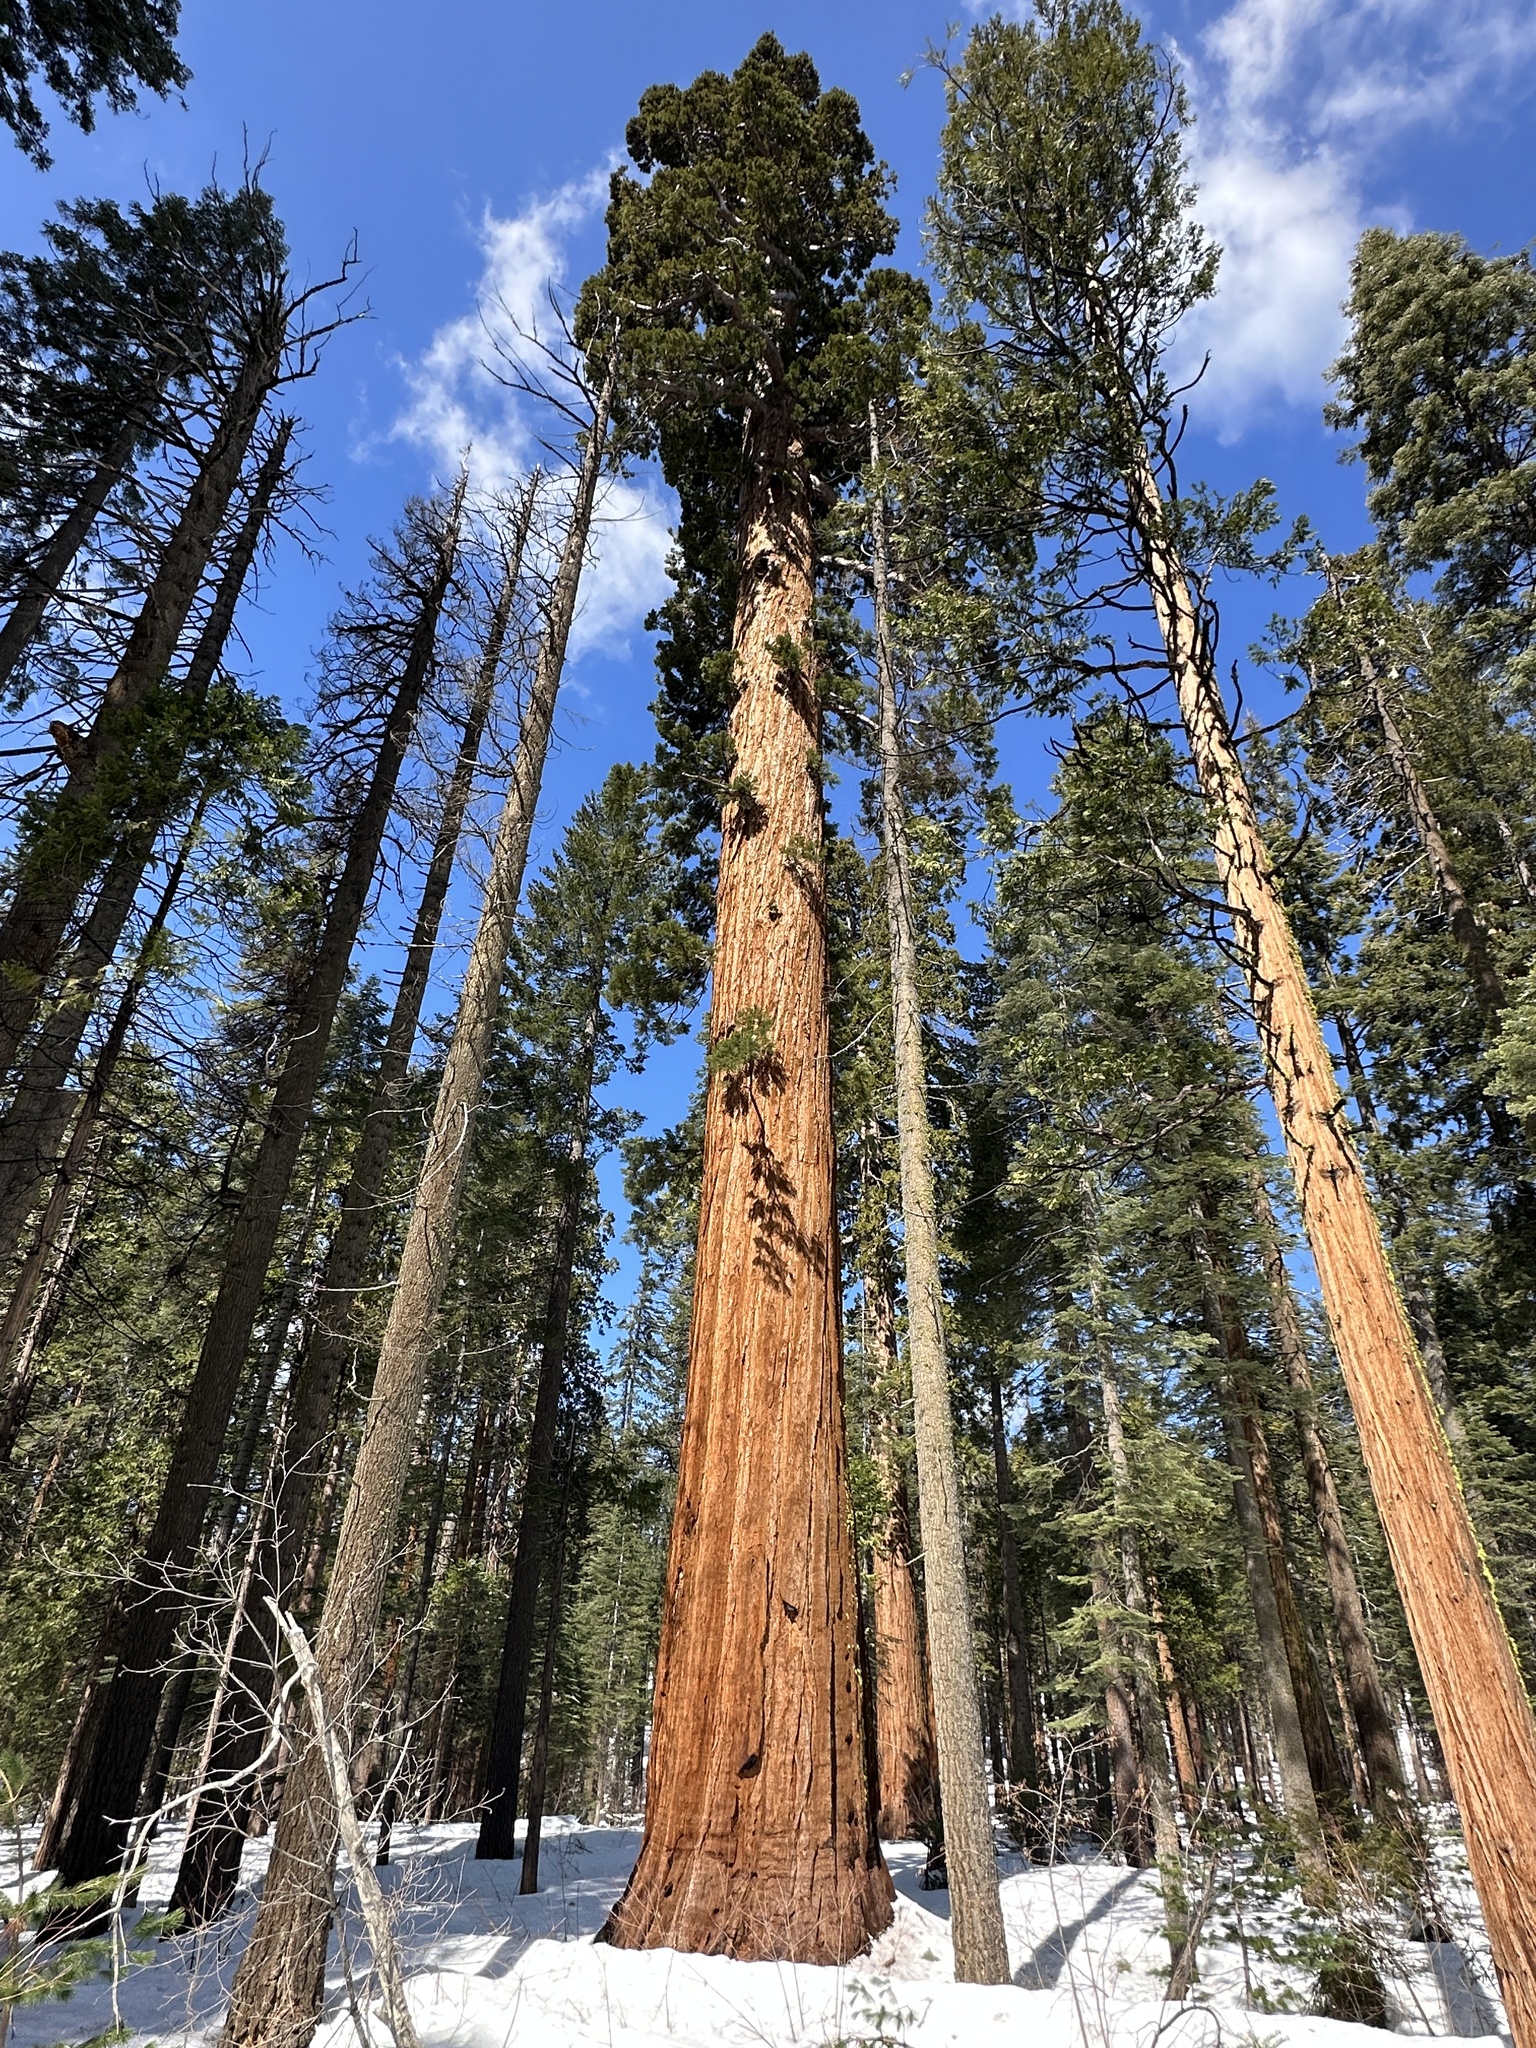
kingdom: Plantae
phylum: Tracheophyta
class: Pinopsida
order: Pinales
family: Cupressaceae
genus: Sequoiadendron
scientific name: Sequoiadendron giganteum
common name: Wellingtonia
